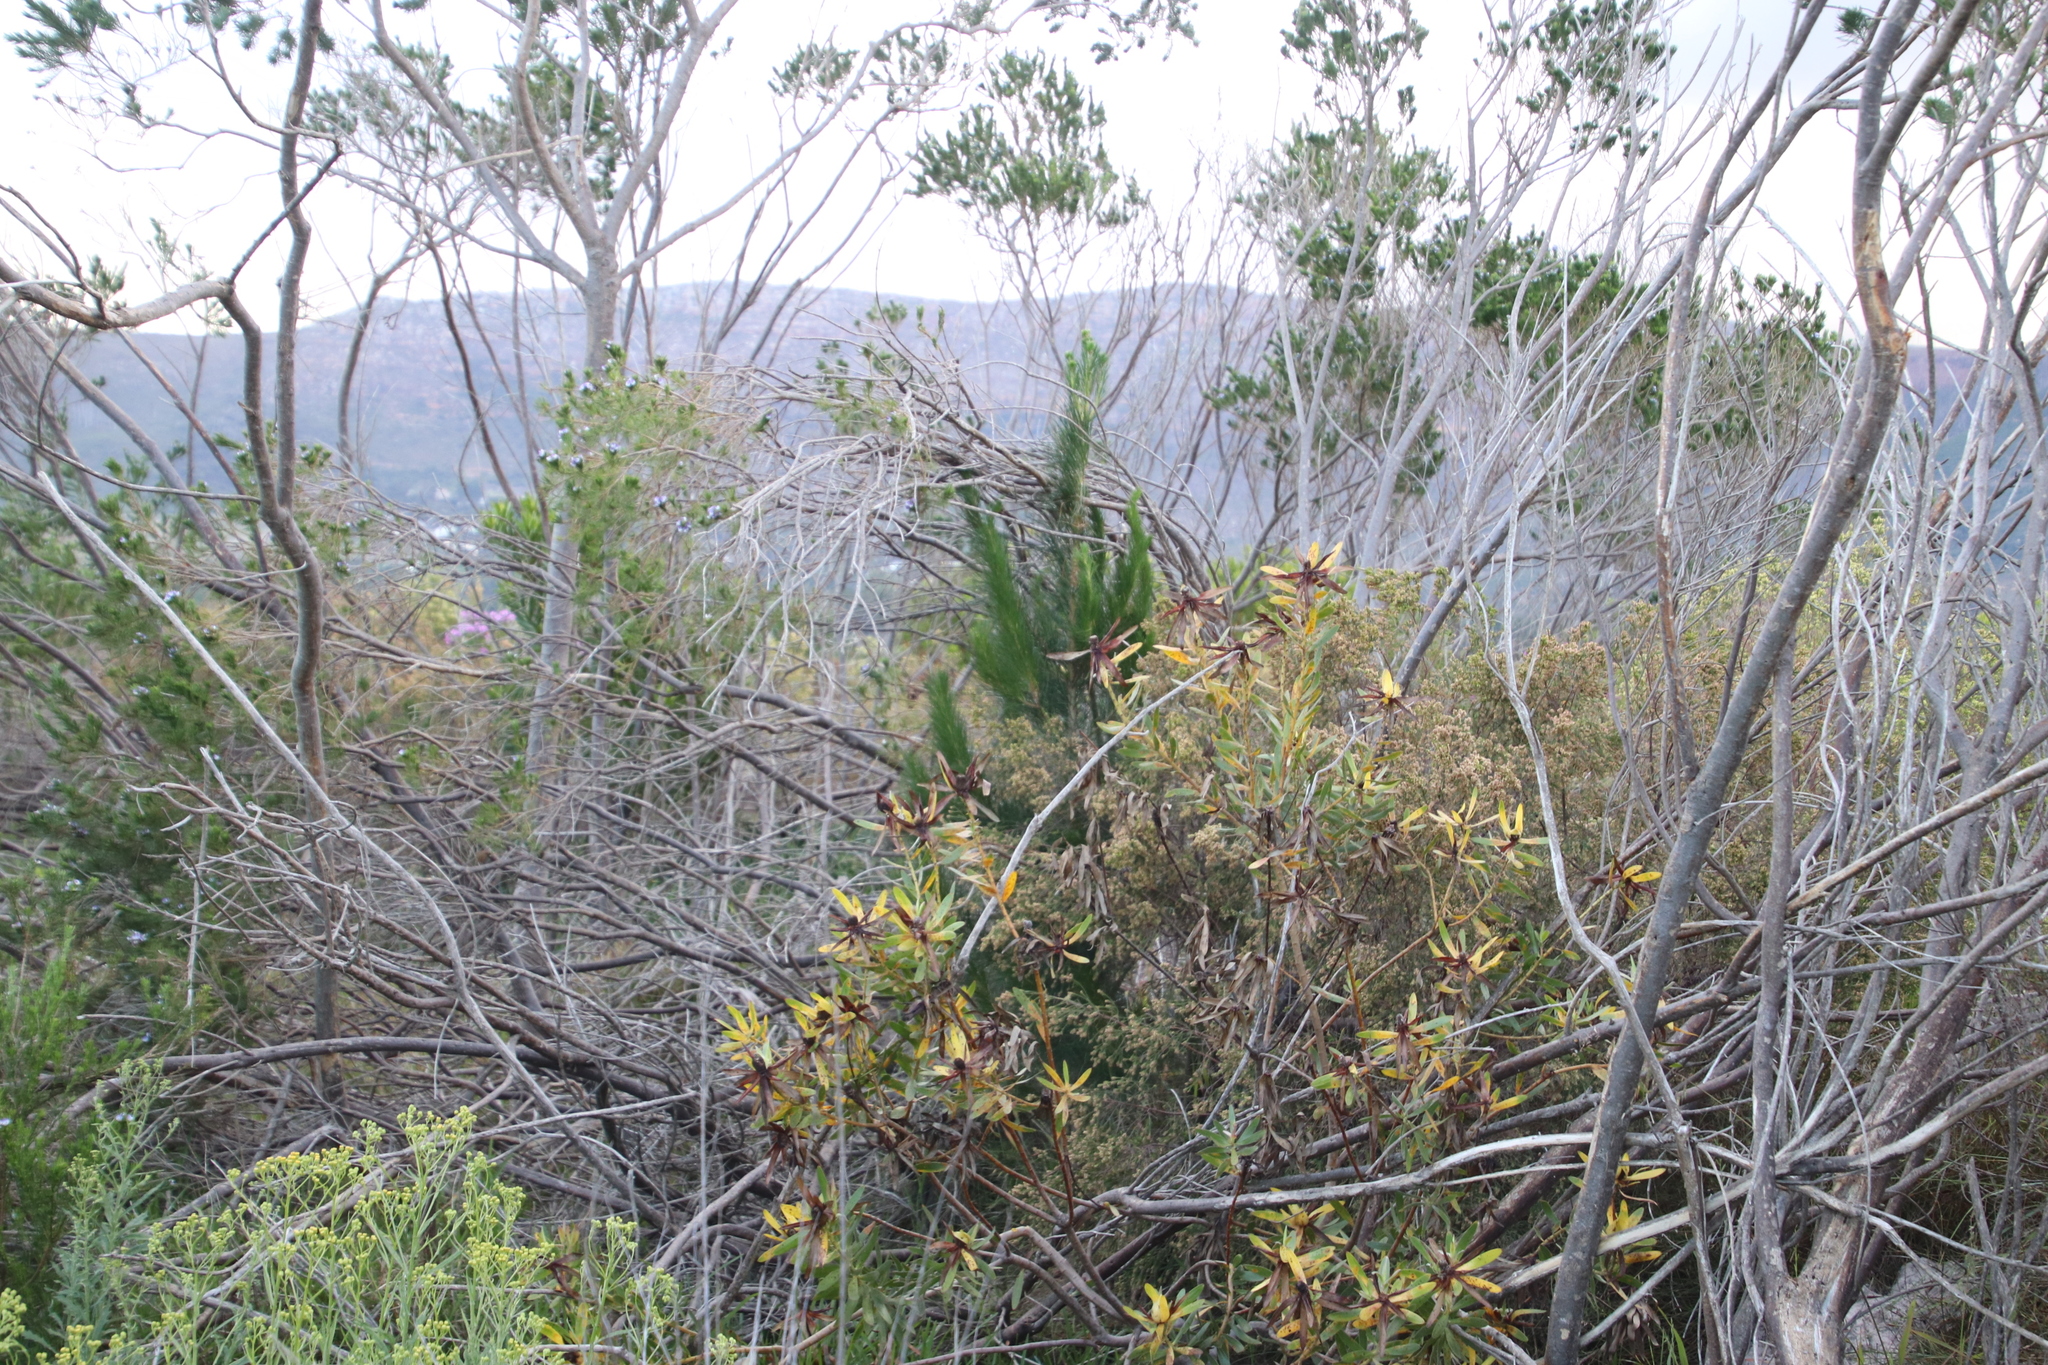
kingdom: Plantae
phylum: Tracheophyta
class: Pinopsida
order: Pinales
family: Pinaceae
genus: Pinus
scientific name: Pinus radiata
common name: Monterey pine
